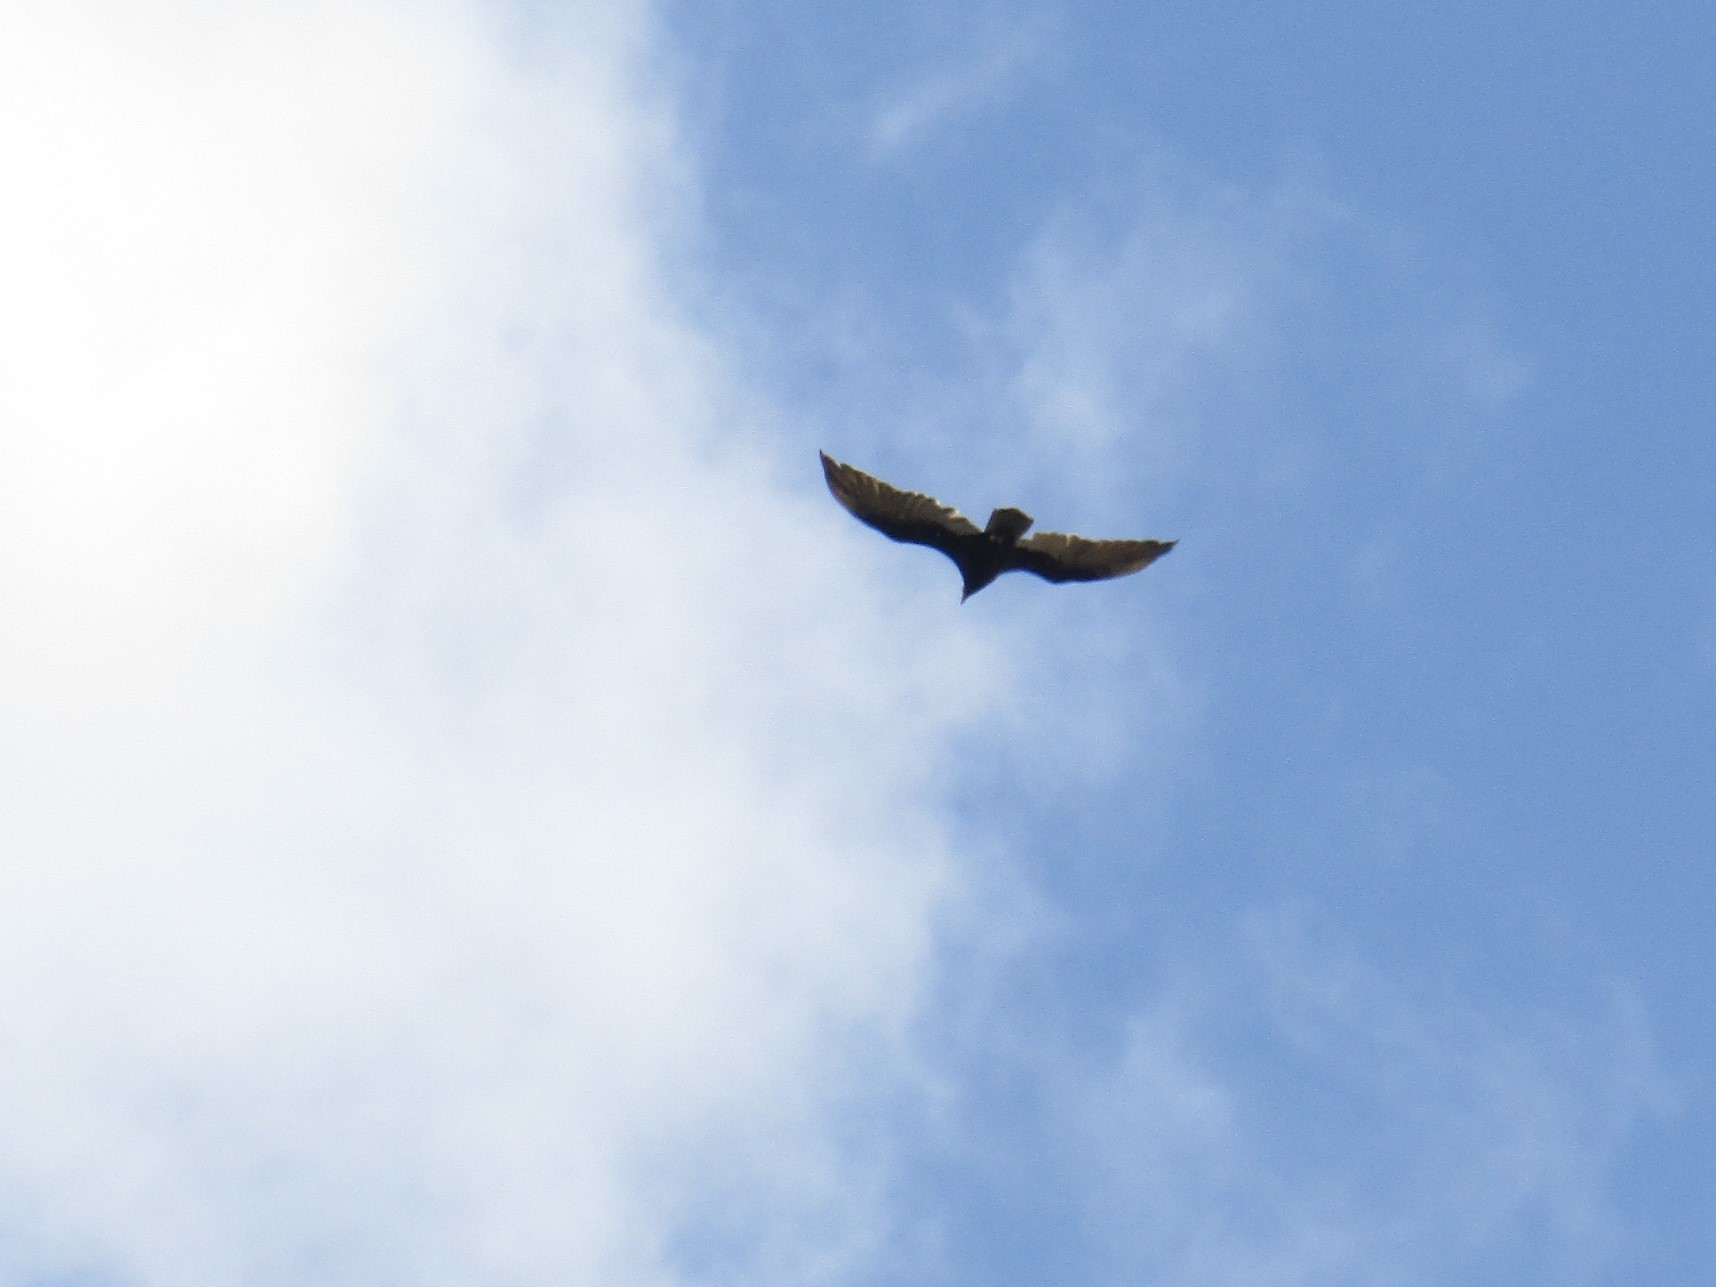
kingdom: Animalia
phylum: Chordata
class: Aves
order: Accipitriformes
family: Cathartidae
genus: Cathartes
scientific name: Cathartes aura
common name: Turkey vulture
